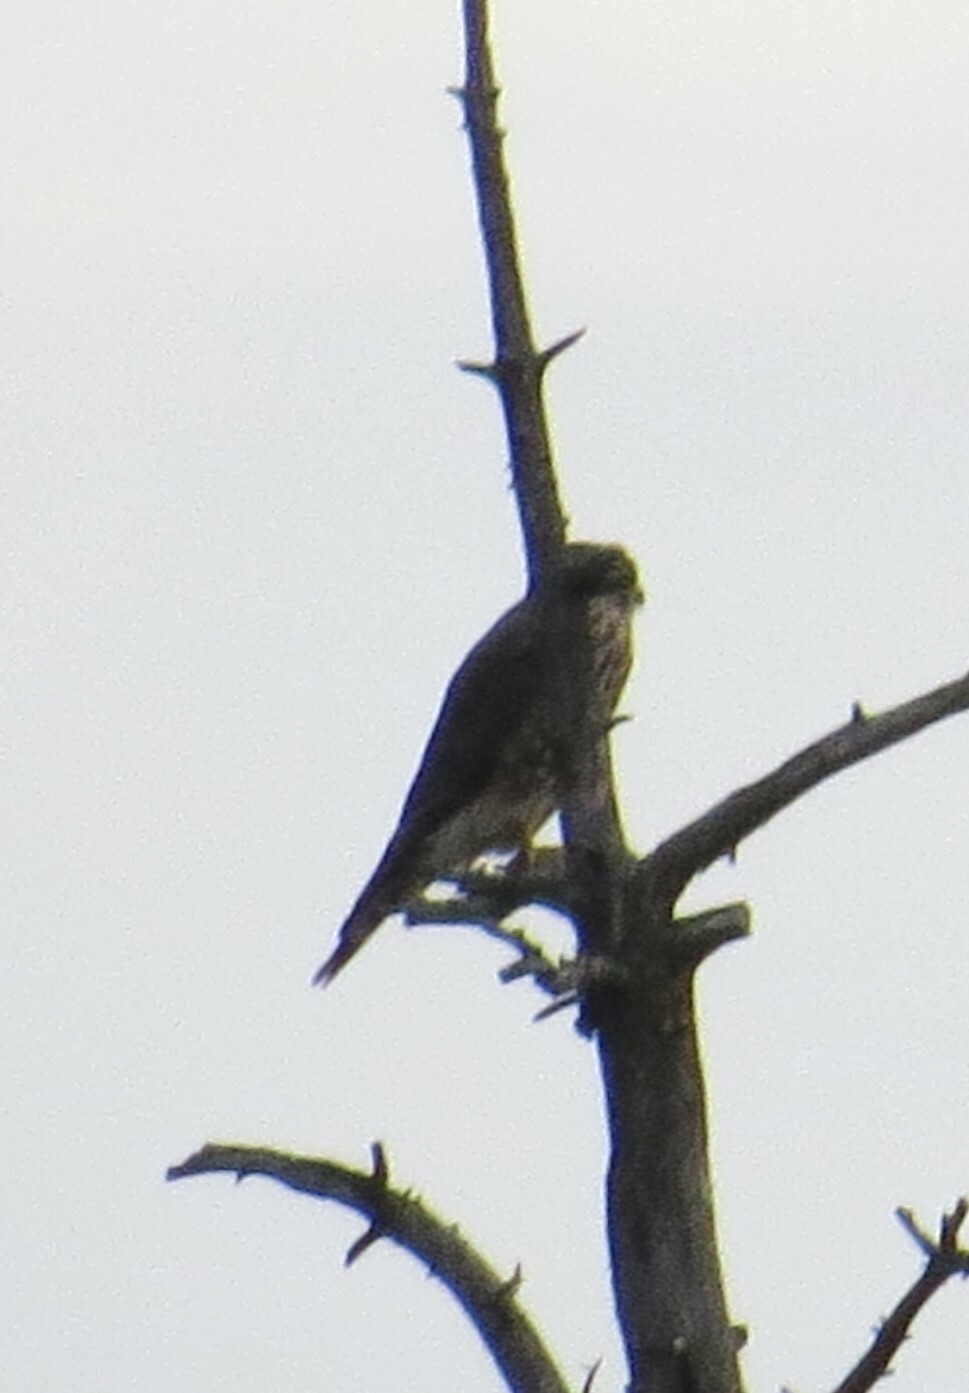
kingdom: Animalia
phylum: Chordata
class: Aves
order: Falconiformes
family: Falconidae
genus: Falco
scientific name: Falco columbarius
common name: Merlin
